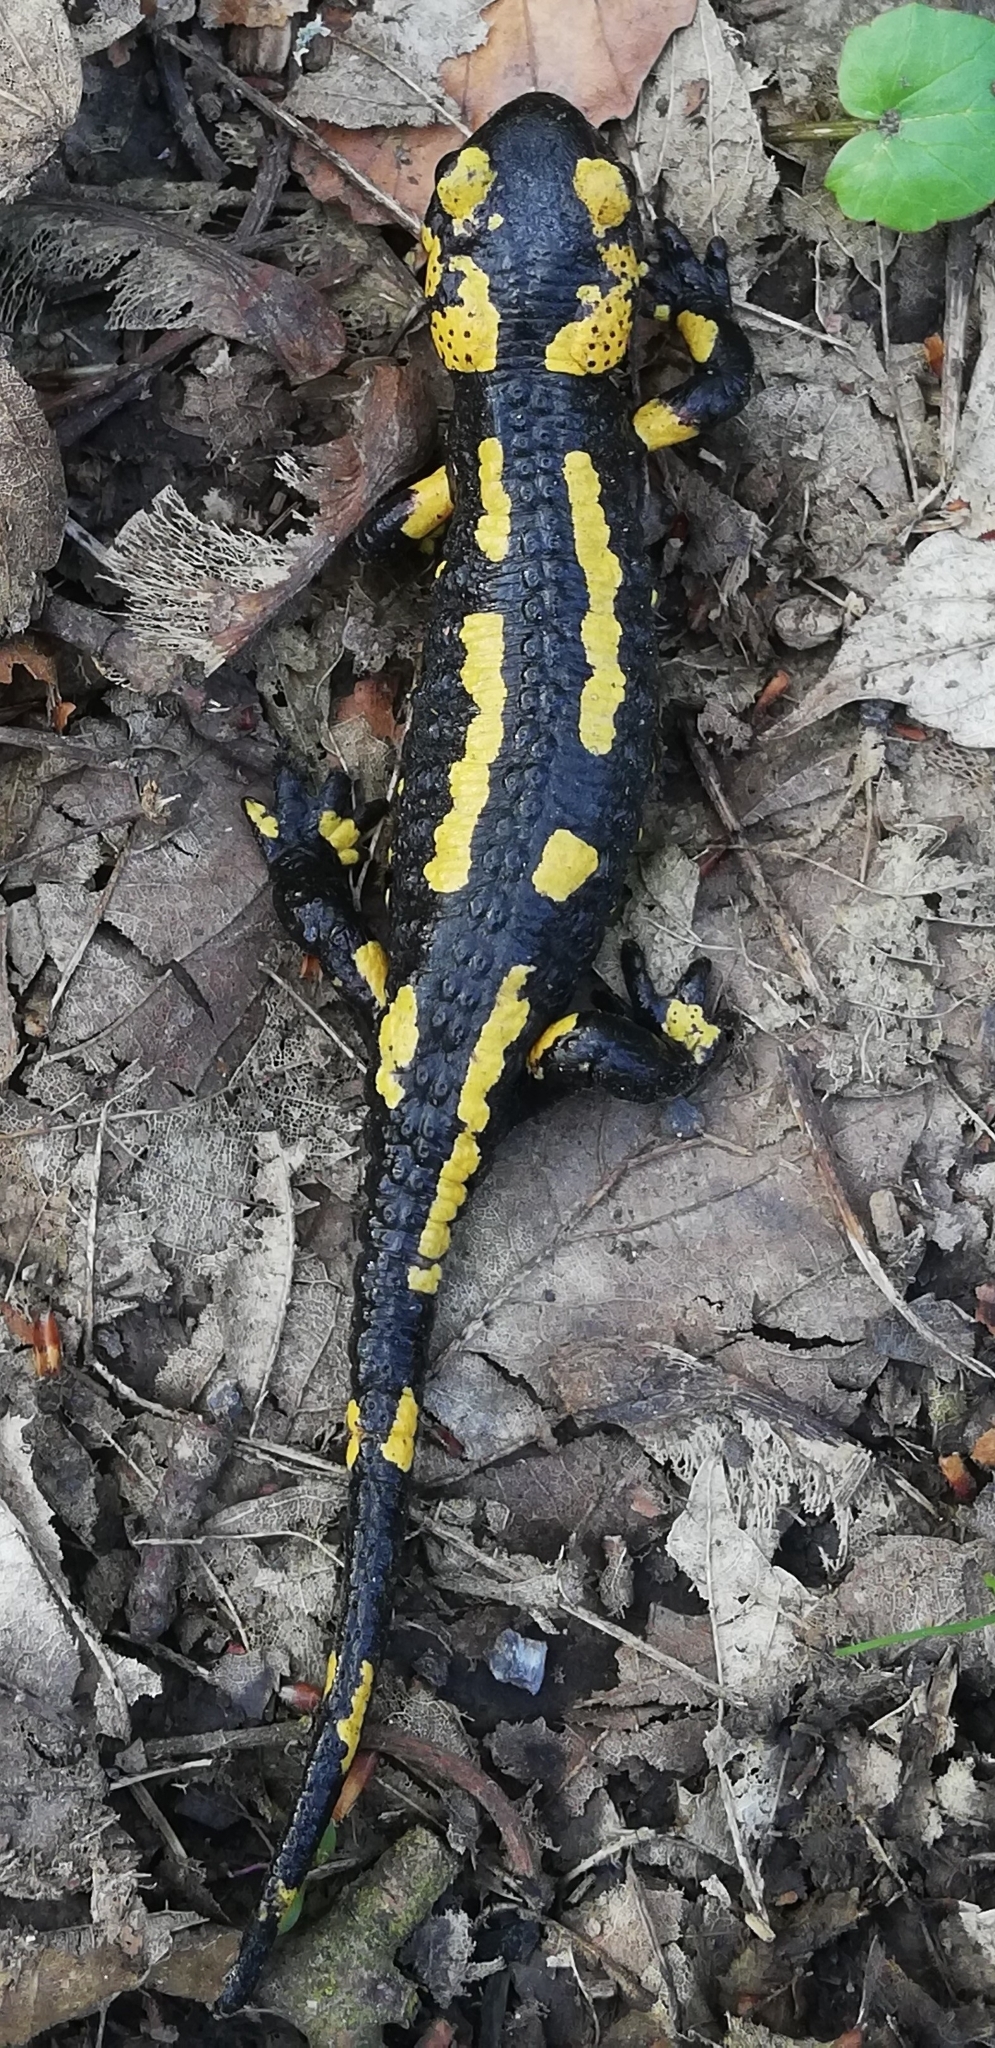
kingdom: Animalia
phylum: Chordata
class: Amphibia
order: Caudata
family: Salamandridae
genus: Salamandra
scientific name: Salamandra salamandra
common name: Fire salamander
